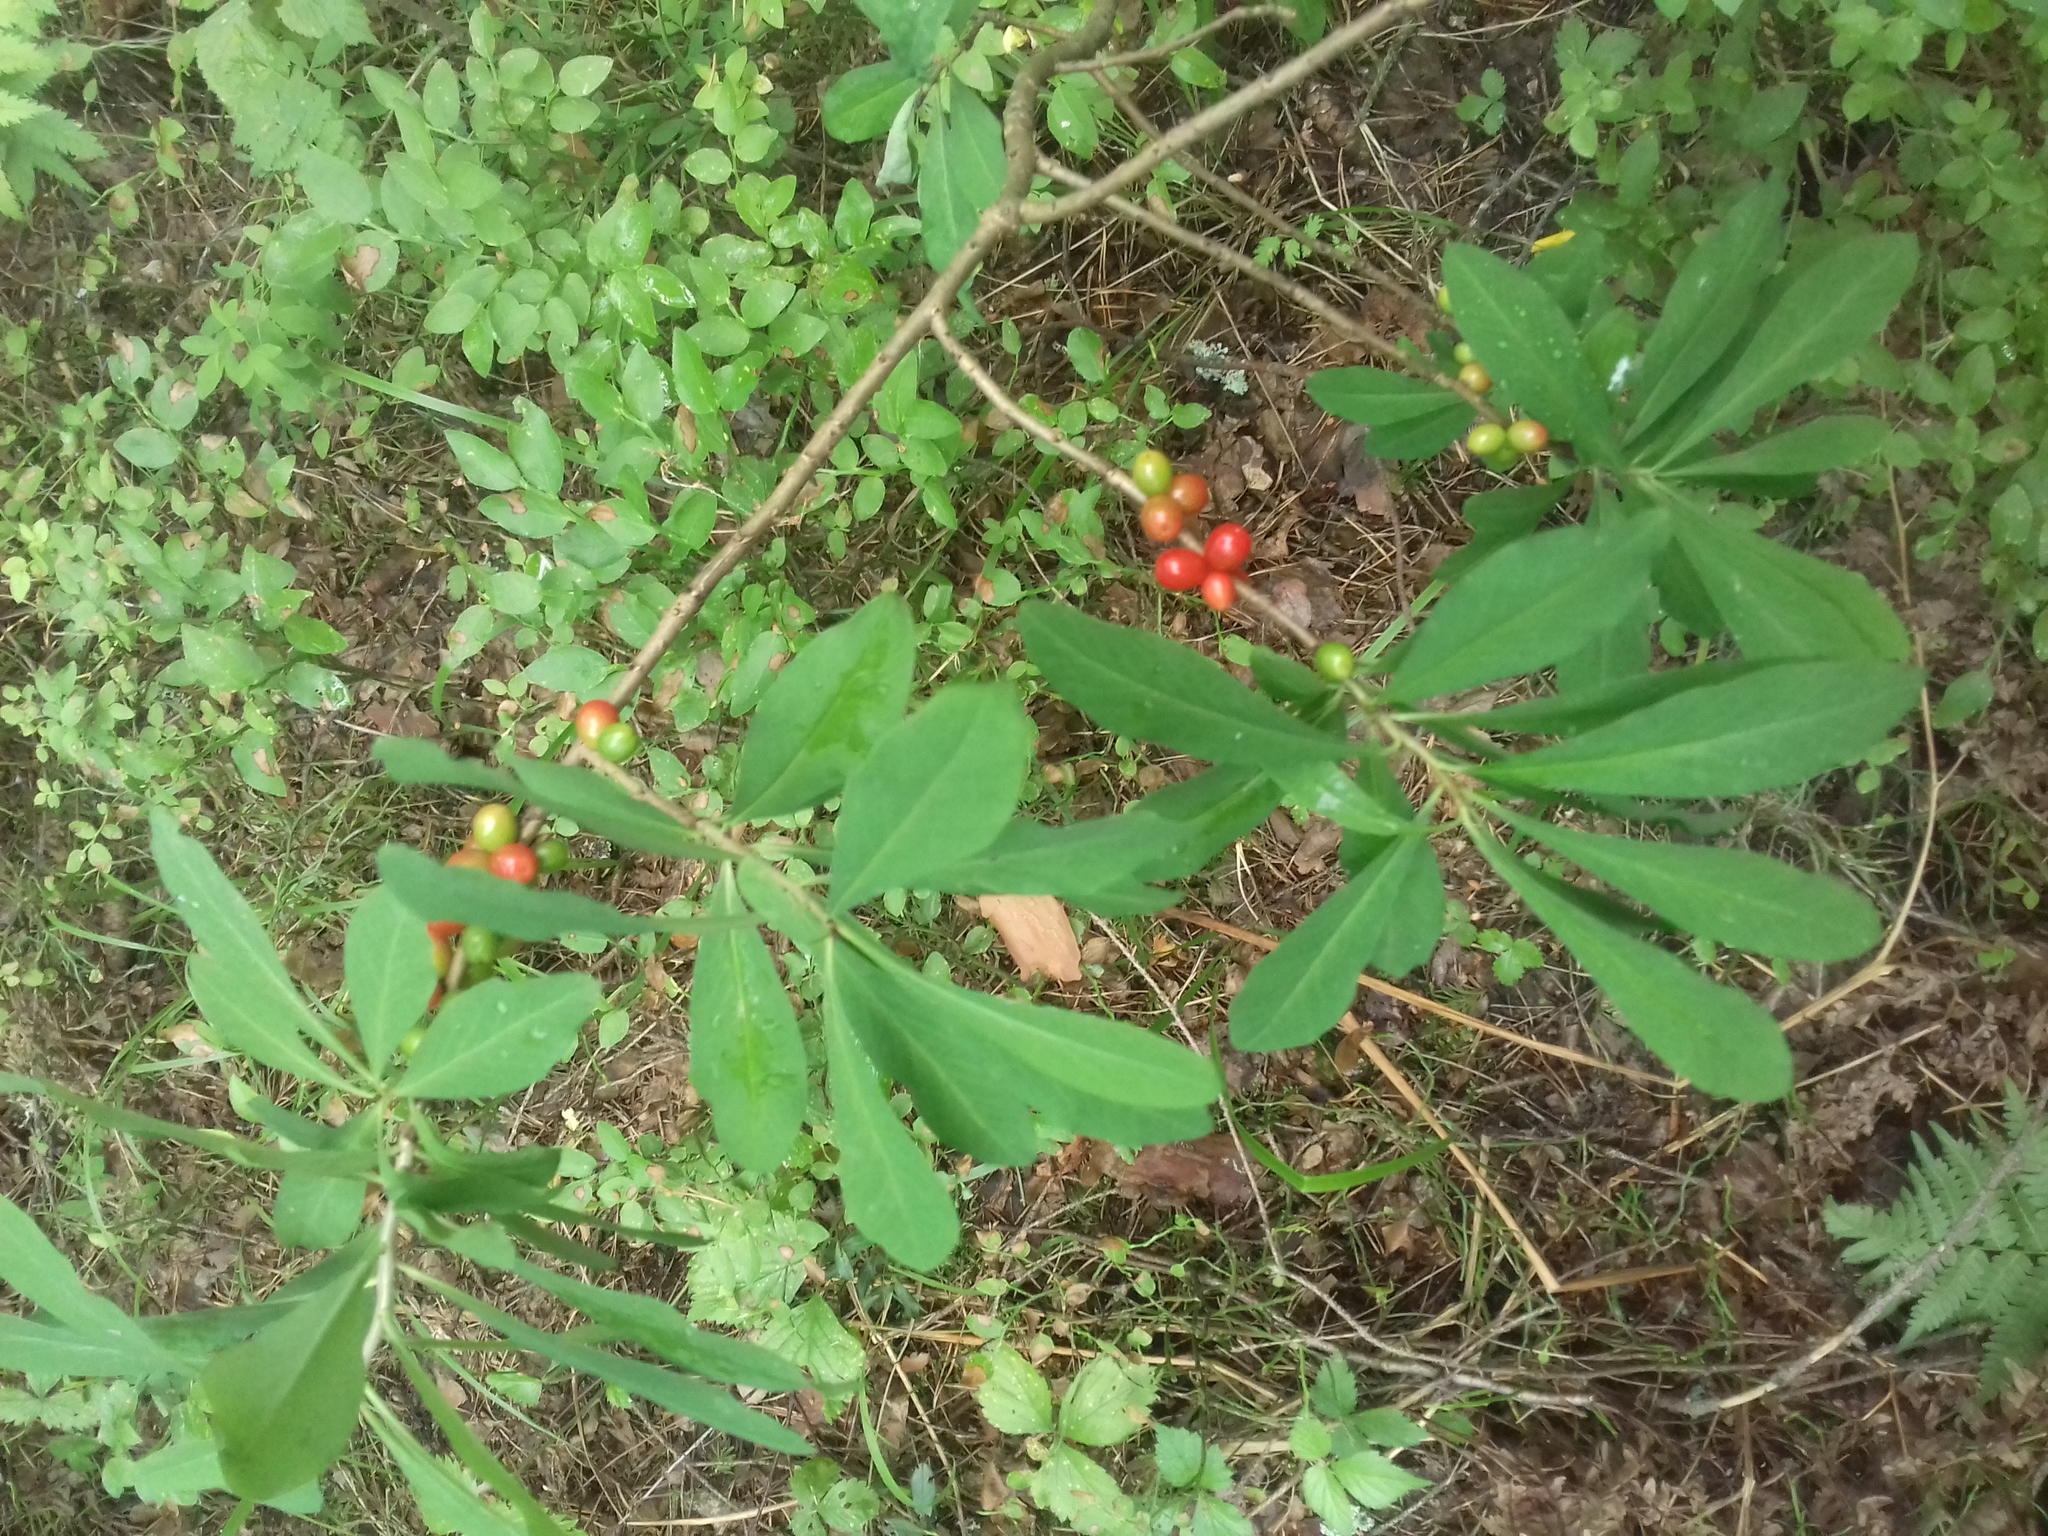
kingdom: Plantae
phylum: Tracheophyta
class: Magnoliopsida
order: Malvales
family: Thymelaeaceae
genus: Daphne
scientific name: Daphne mezereum
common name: Mezereon
